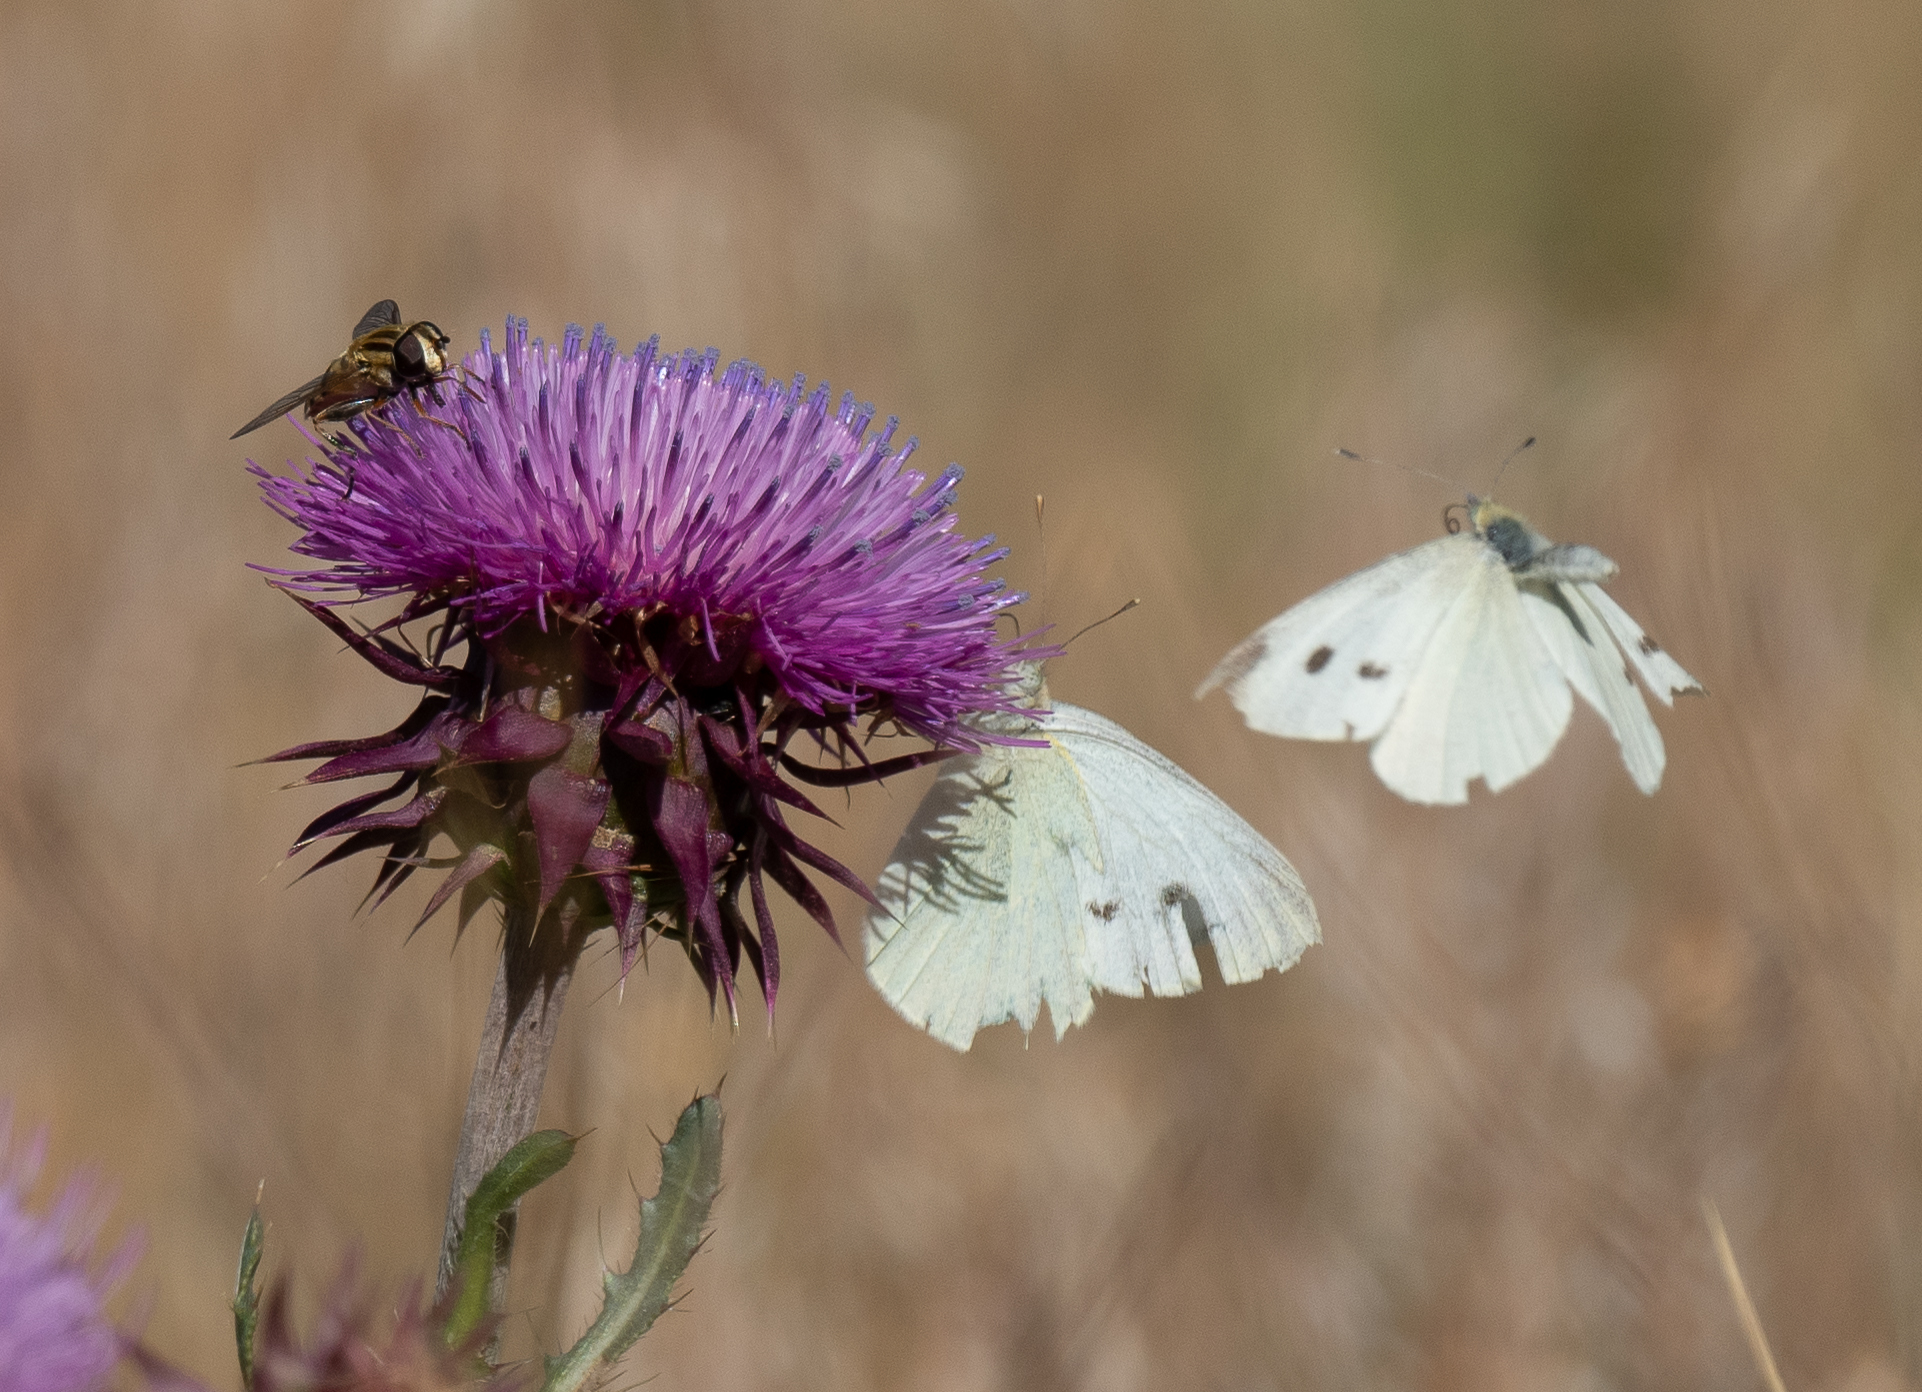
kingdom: Animalia
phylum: Arthropoda
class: Insecta
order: Lepidoptera
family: Pieridae
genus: Pieris
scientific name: Pieris rapae
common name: Small white
